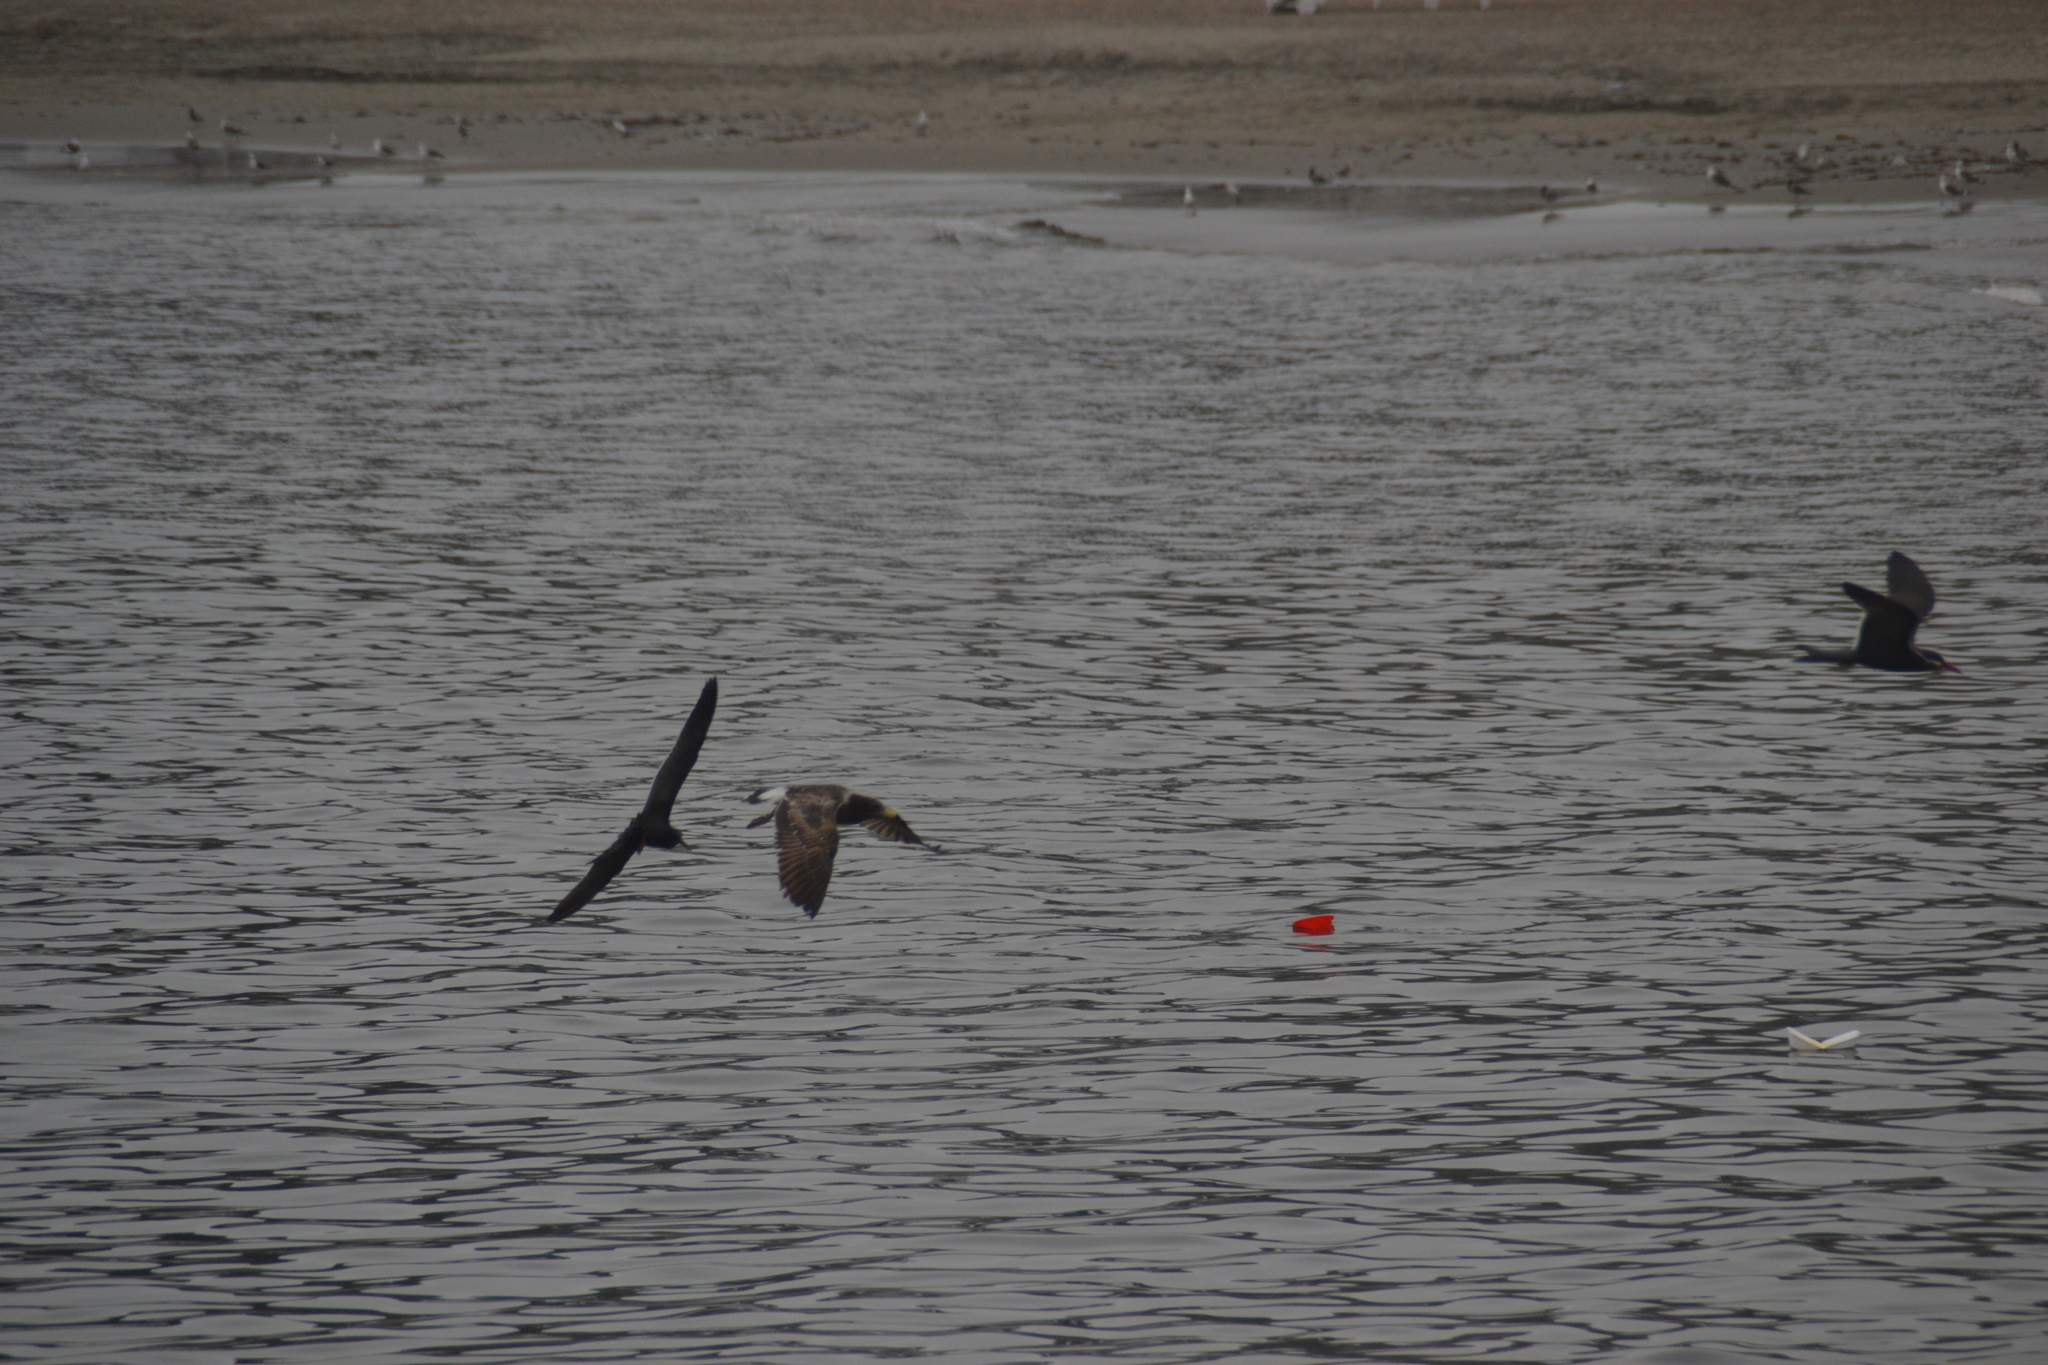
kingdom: Animalia
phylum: Chordata
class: Aves
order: Charadriiformes
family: Laridae
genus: Larus
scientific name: Larus belcheri
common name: Belcher's gull
